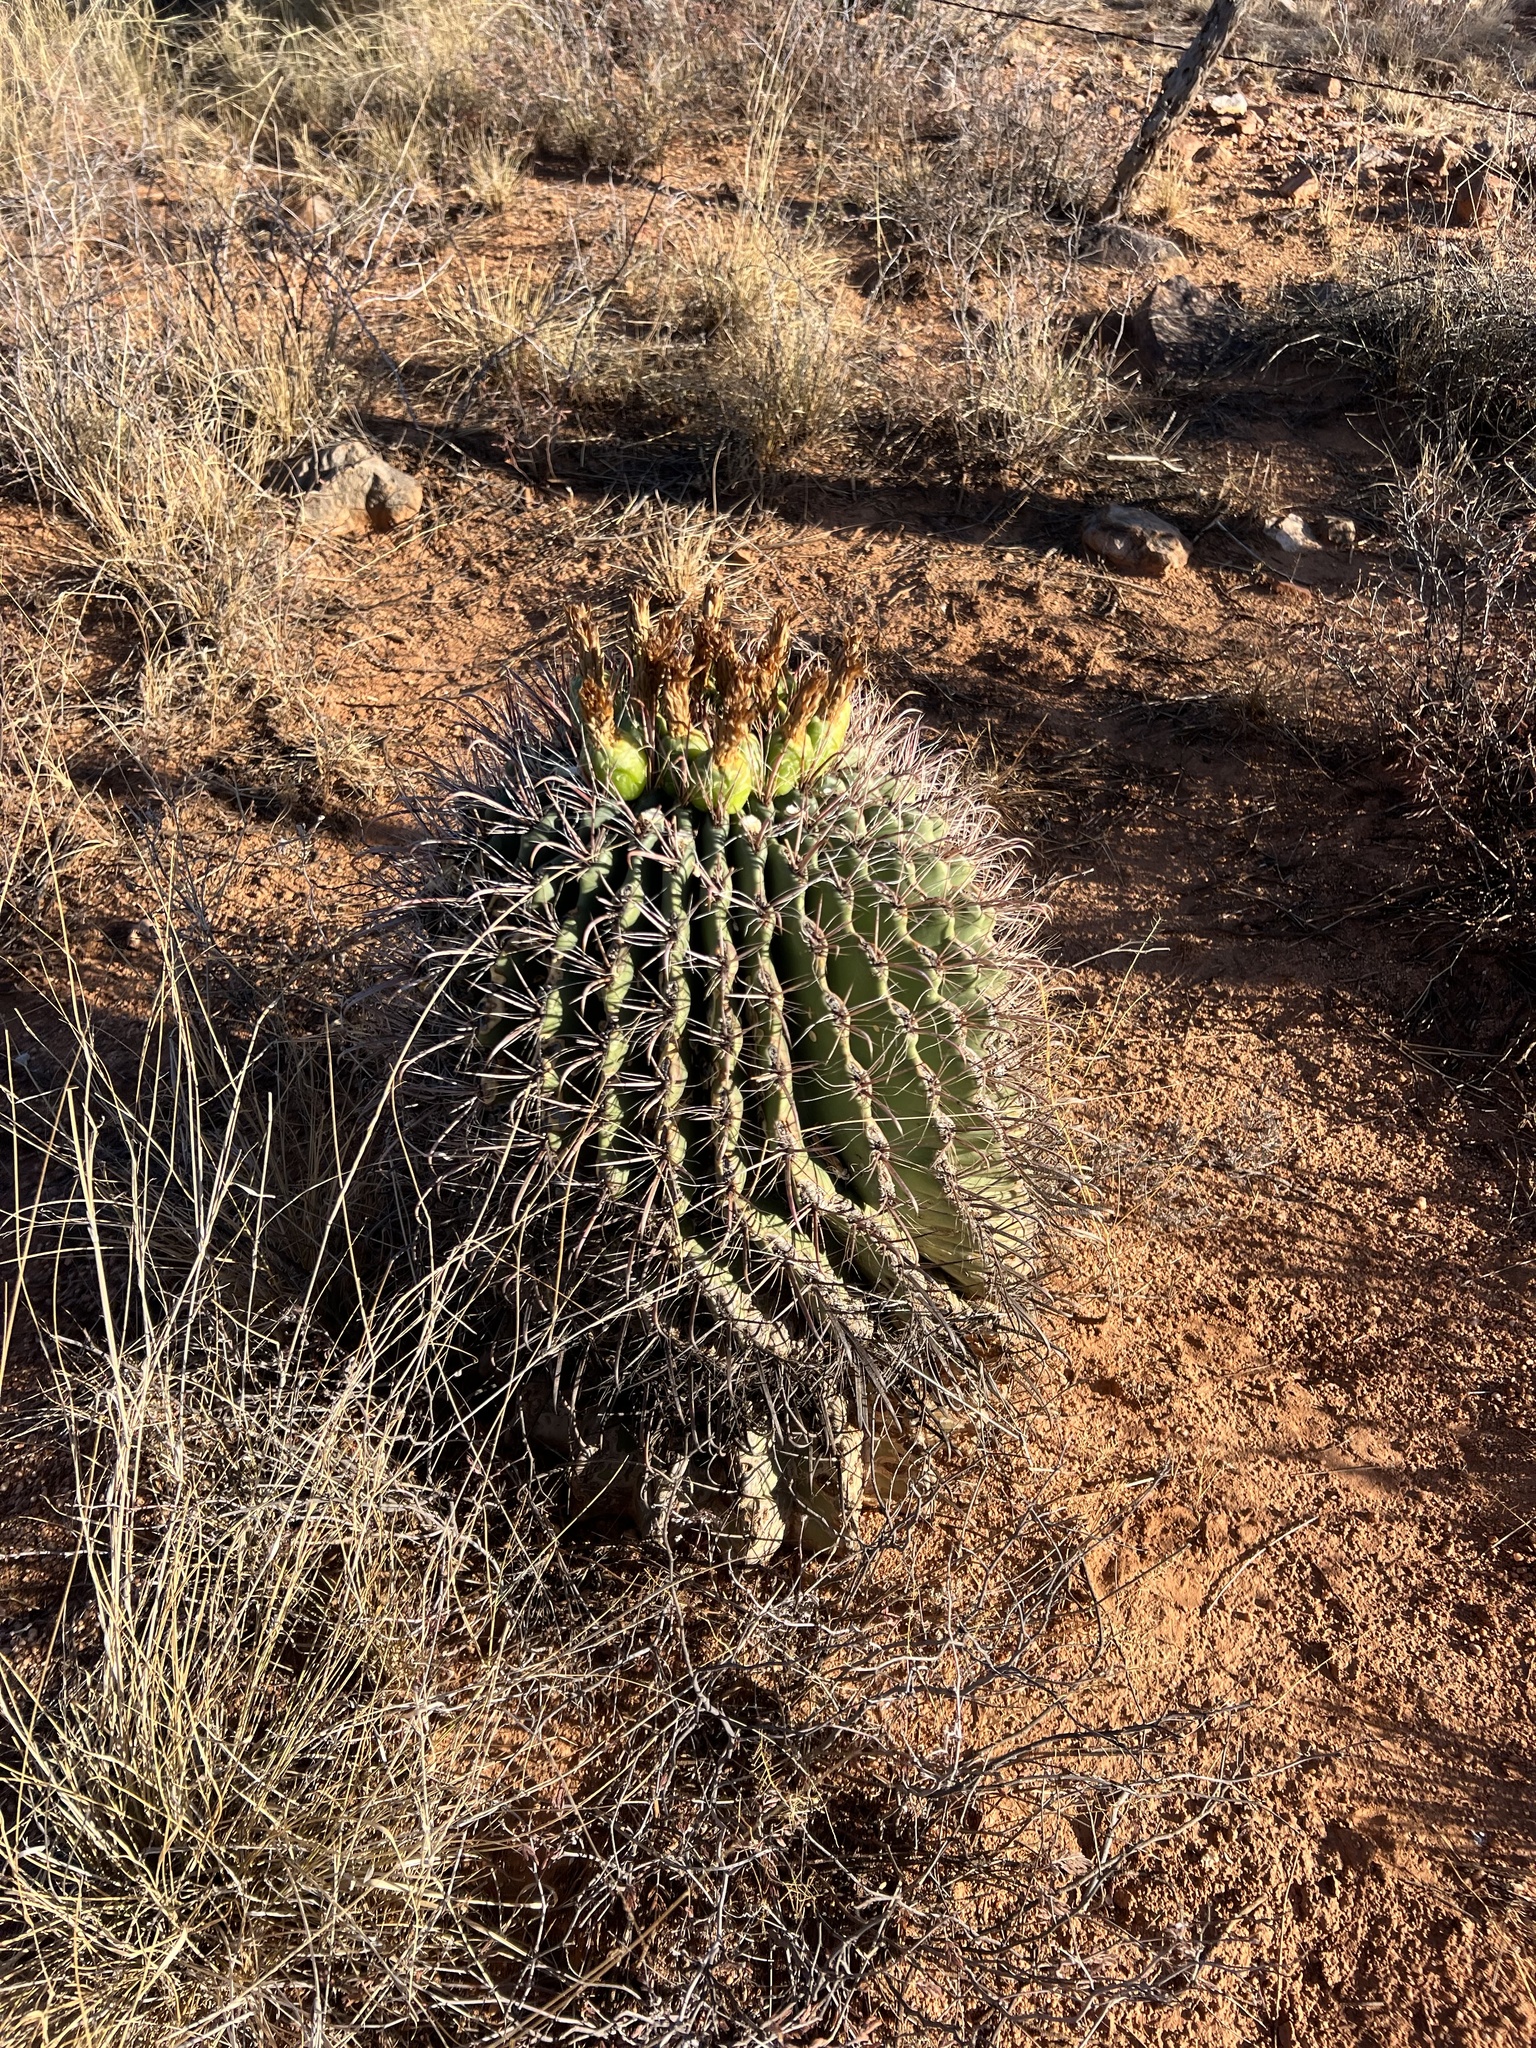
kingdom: Plantae
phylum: Tracheophyta
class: Magnoliopsida
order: Caryophyllales
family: Cactaceae
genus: Ferocactus
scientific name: Ferocactus wislizeni
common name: Candy barrel cactus
